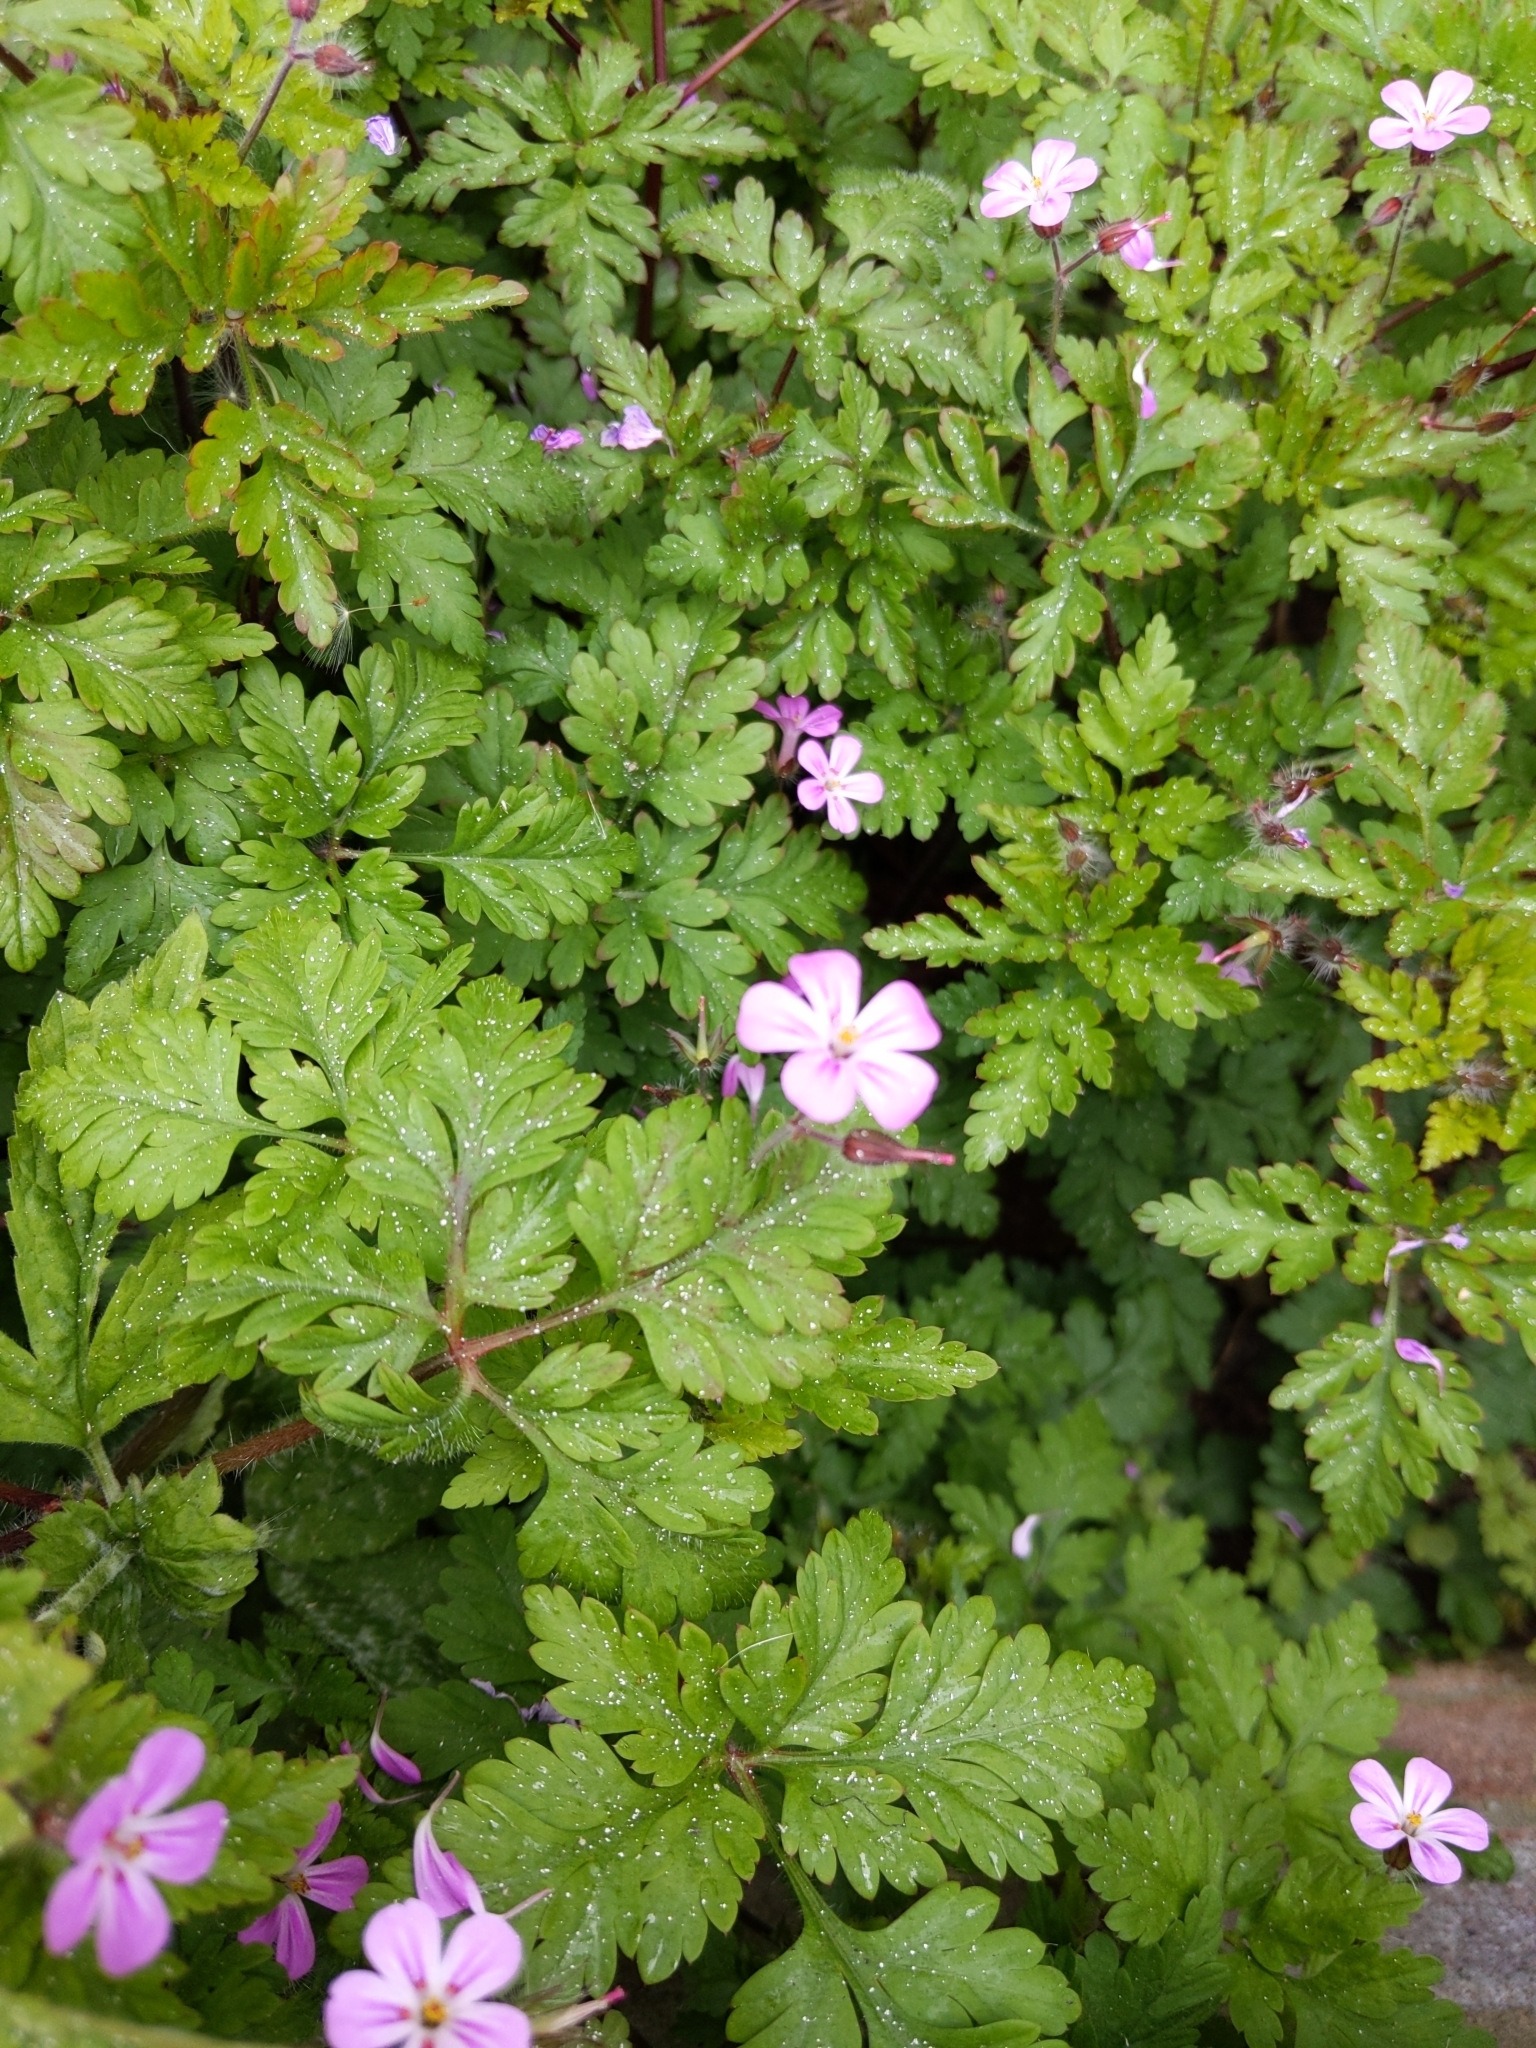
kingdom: Plantae
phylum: Tracheophyta
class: Magnoliopsida
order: Geraniales
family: Geraniaceae
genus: Geranium
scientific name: Geranium robertianum
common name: Herb-robert
